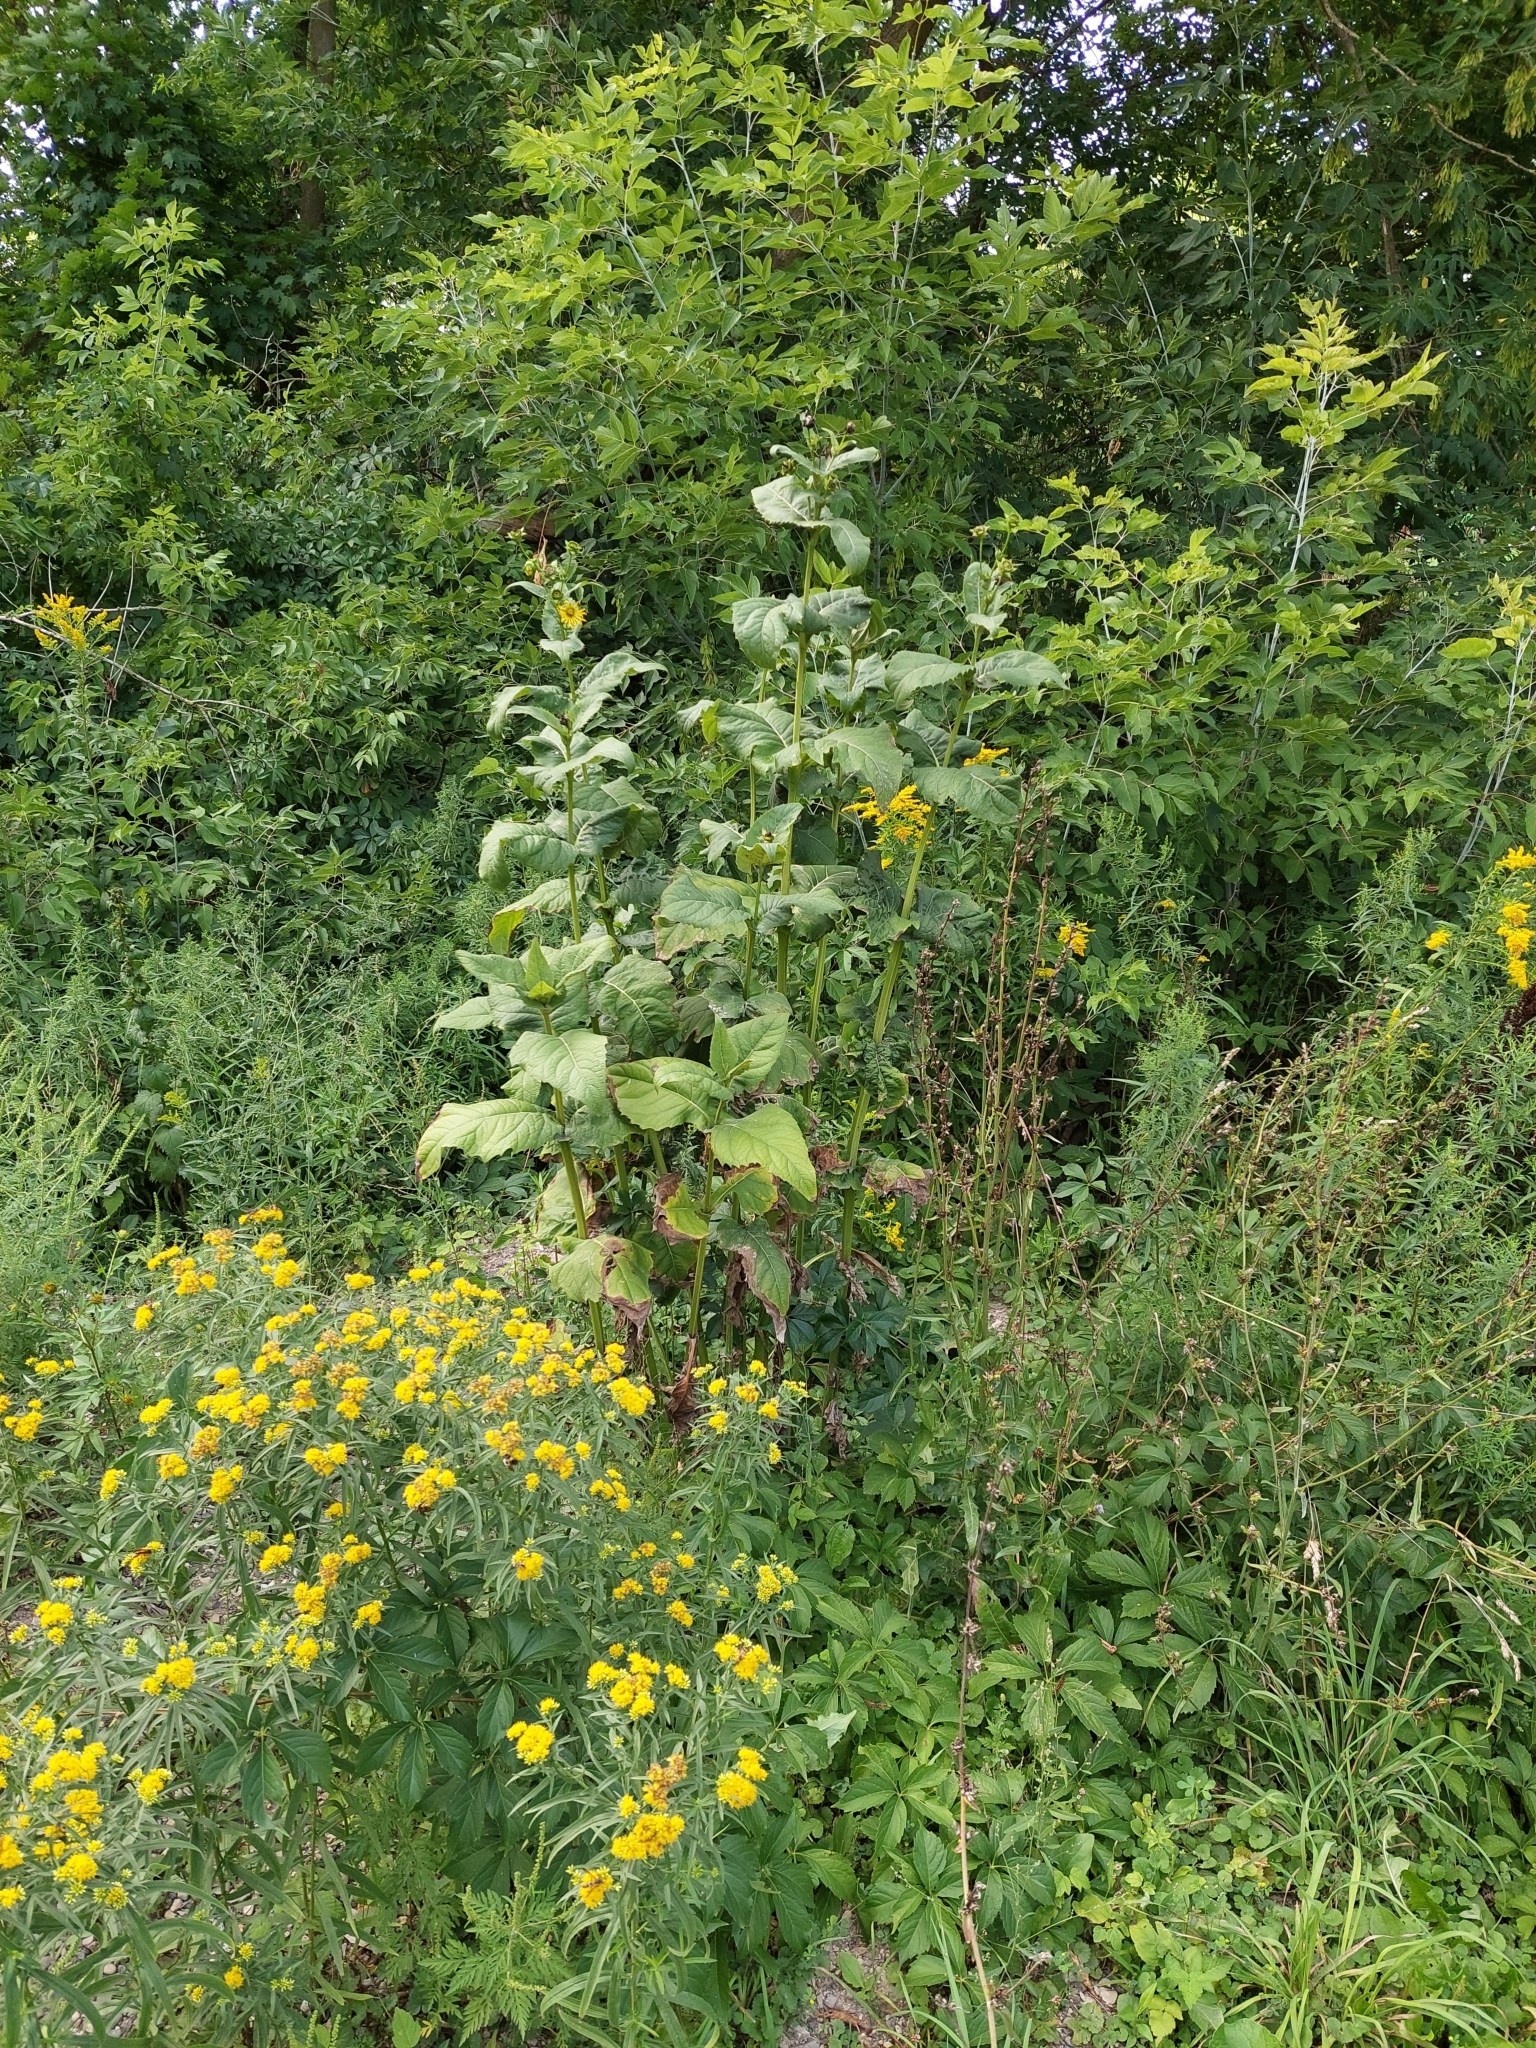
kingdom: Plantae
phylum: Tracheophyta
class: Magnoliopsida
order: Asterales
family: Asteraceae
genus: Silphium
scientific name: Silphium perfoliatum
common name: Cup-plant
